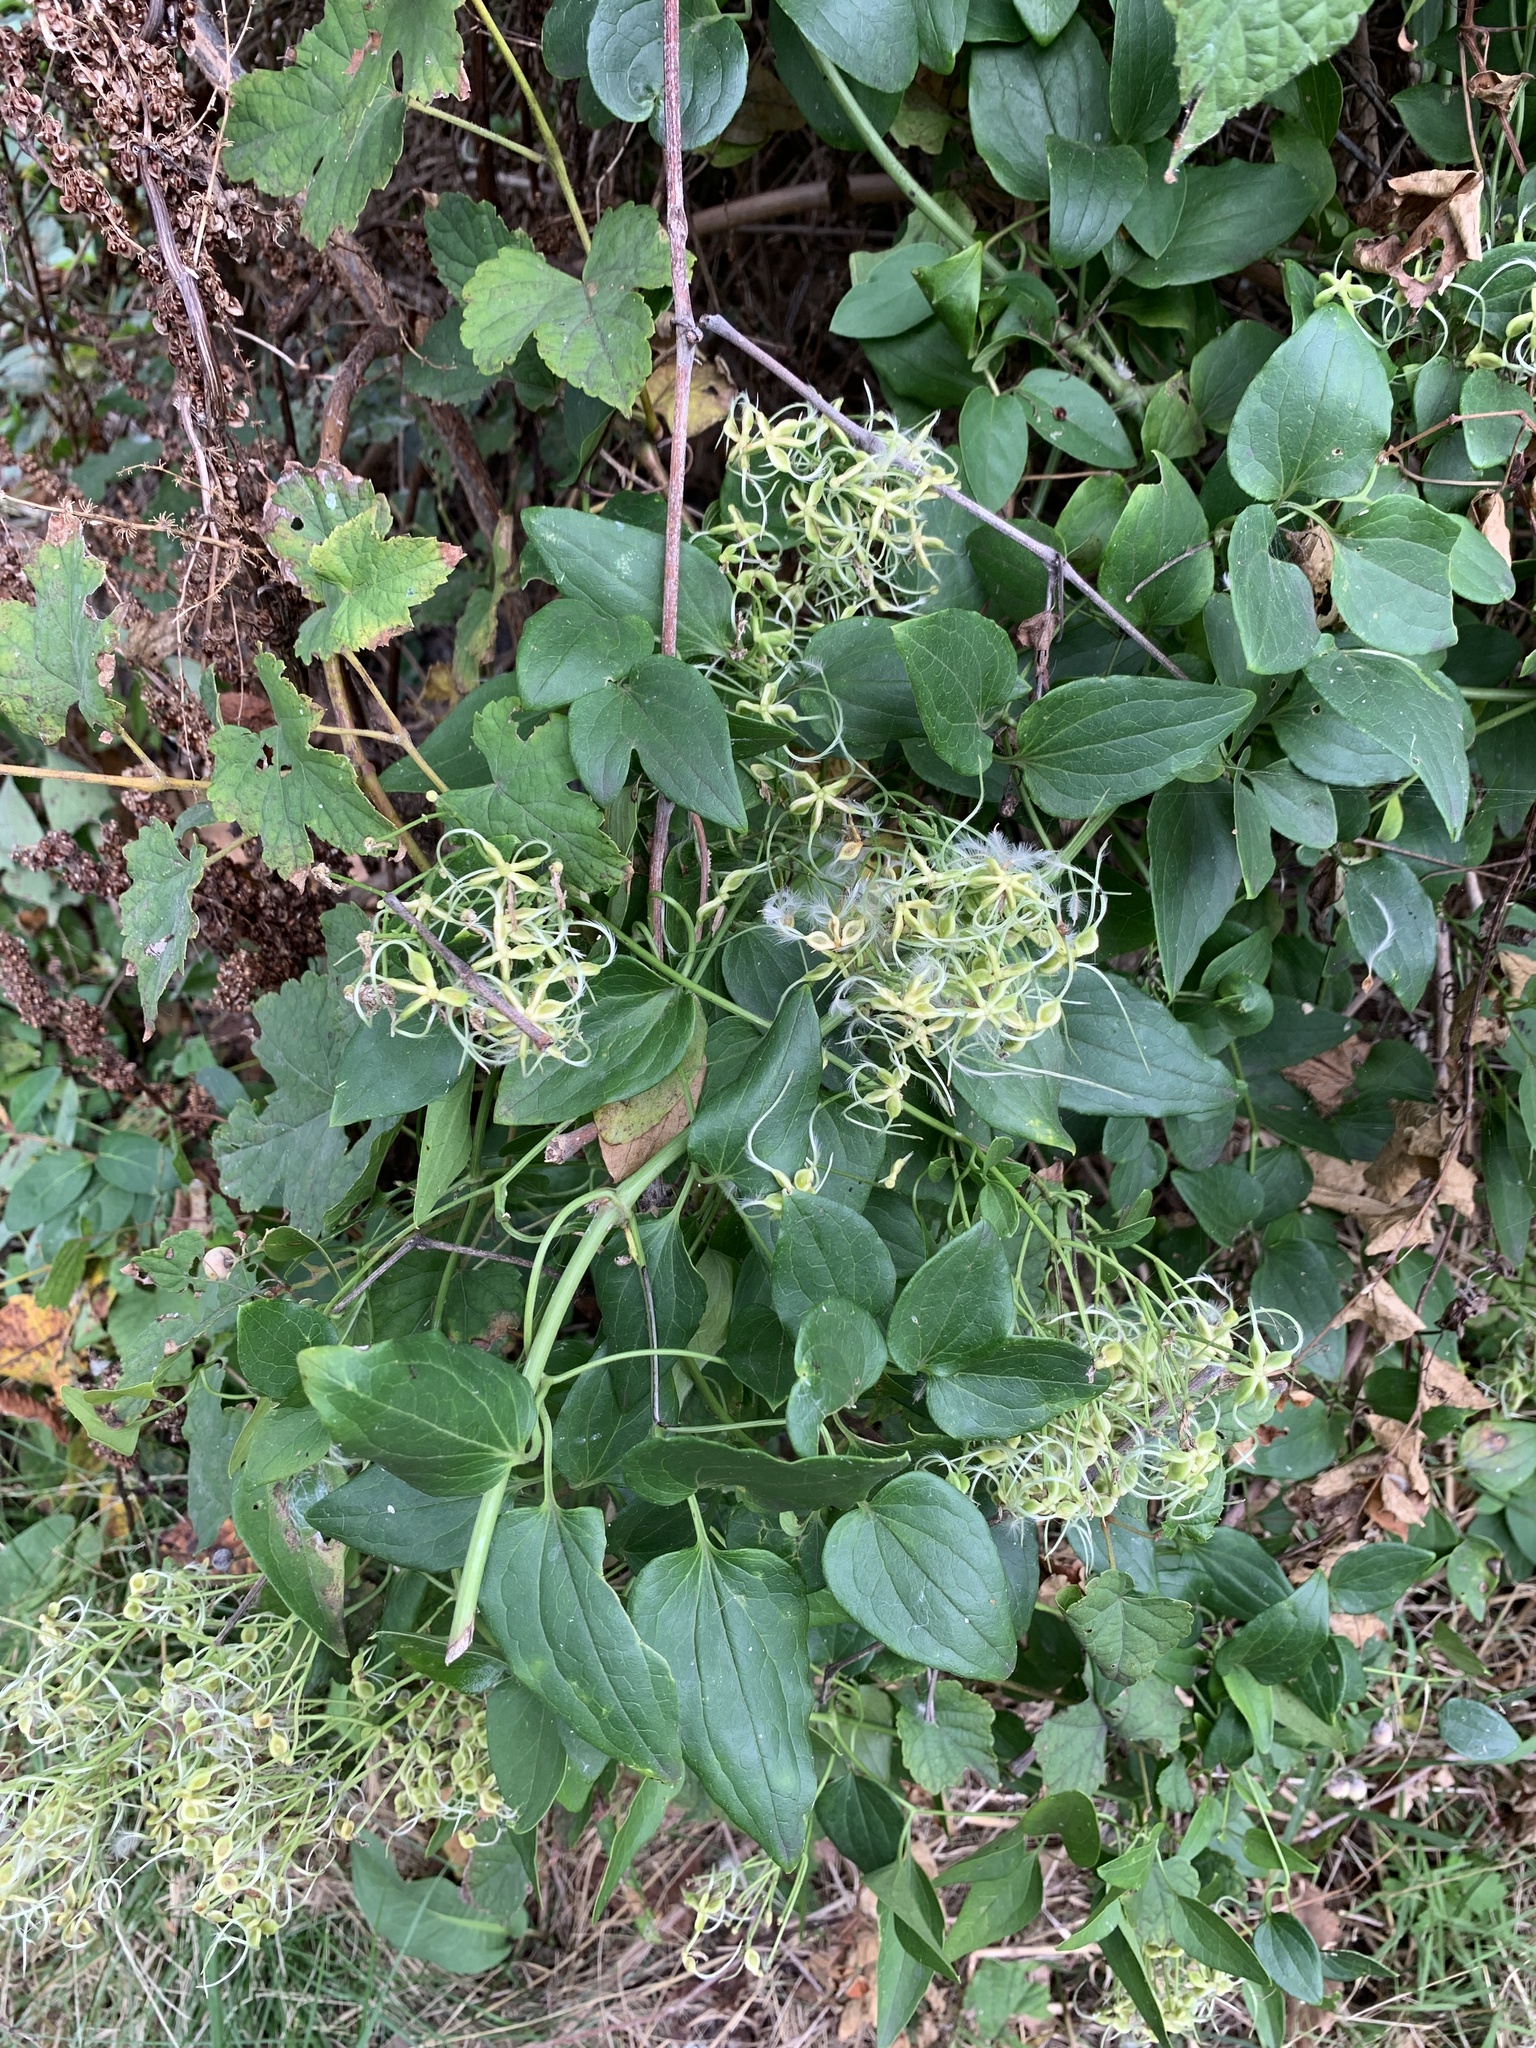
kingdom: Plantae
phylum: Tracheophyta
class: Magnoliopsida
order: Ranunculales
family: Ranunculaceae
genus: Clematis
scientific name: Clematis terniflora
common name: Sweet autumn clematis
